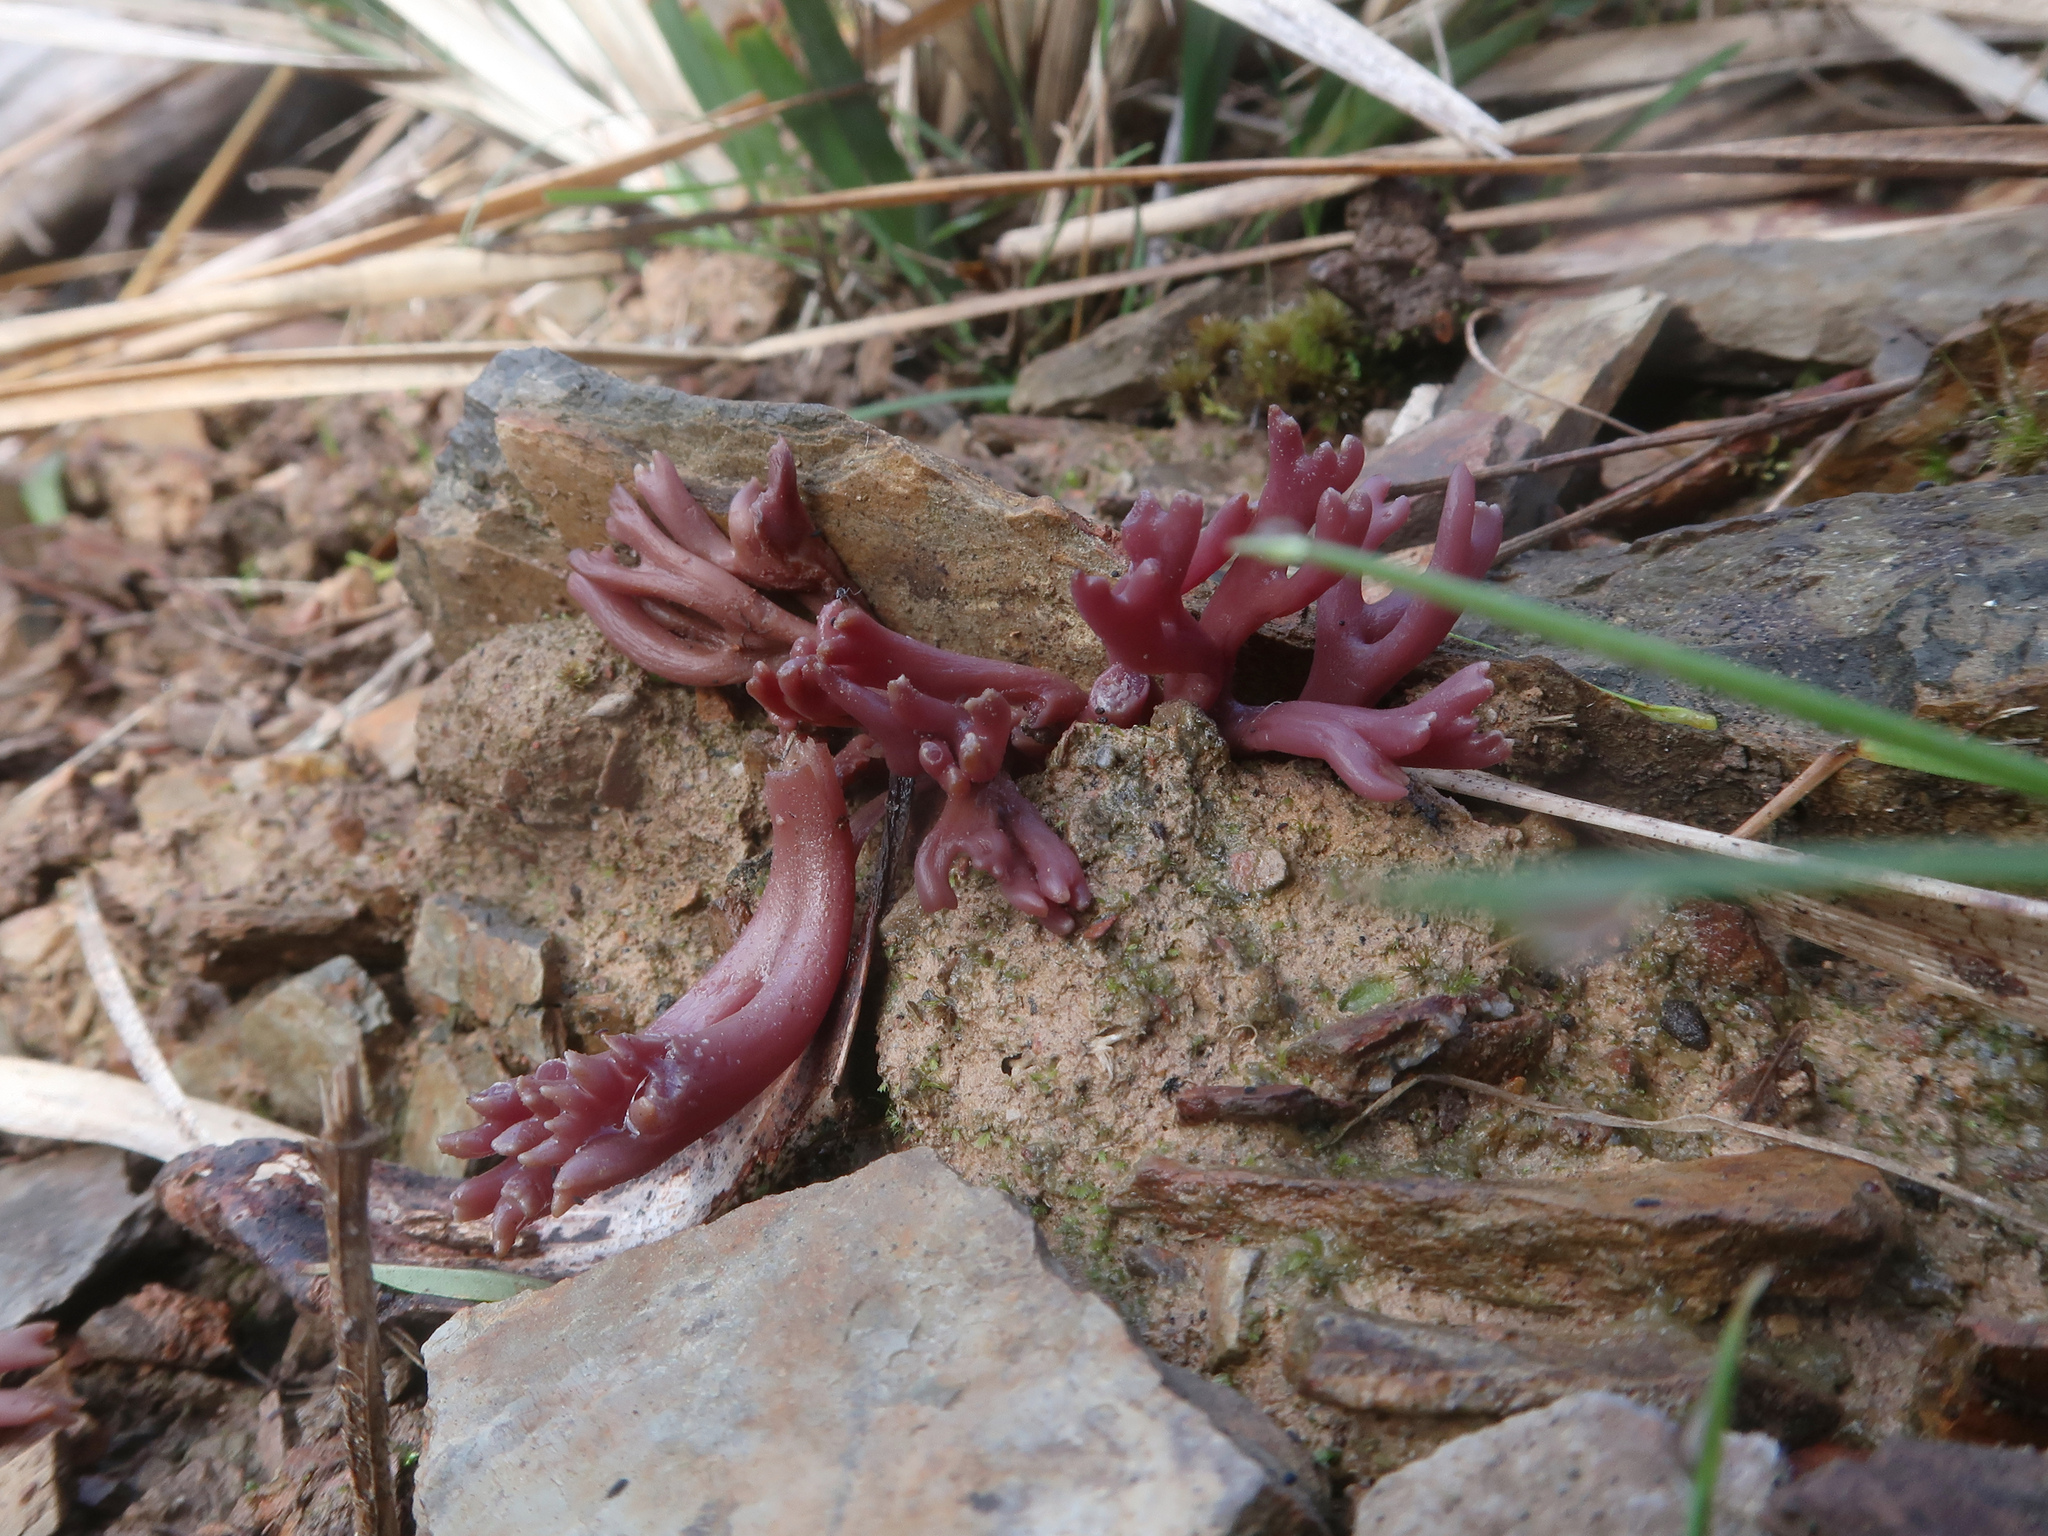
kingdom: Fungi
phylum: Basidiomycota
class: Agaricomycetes
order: Agaricales
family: Clavariaceae
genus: Clavaria
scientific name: Clavaria zollingeri
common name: Violet coral
